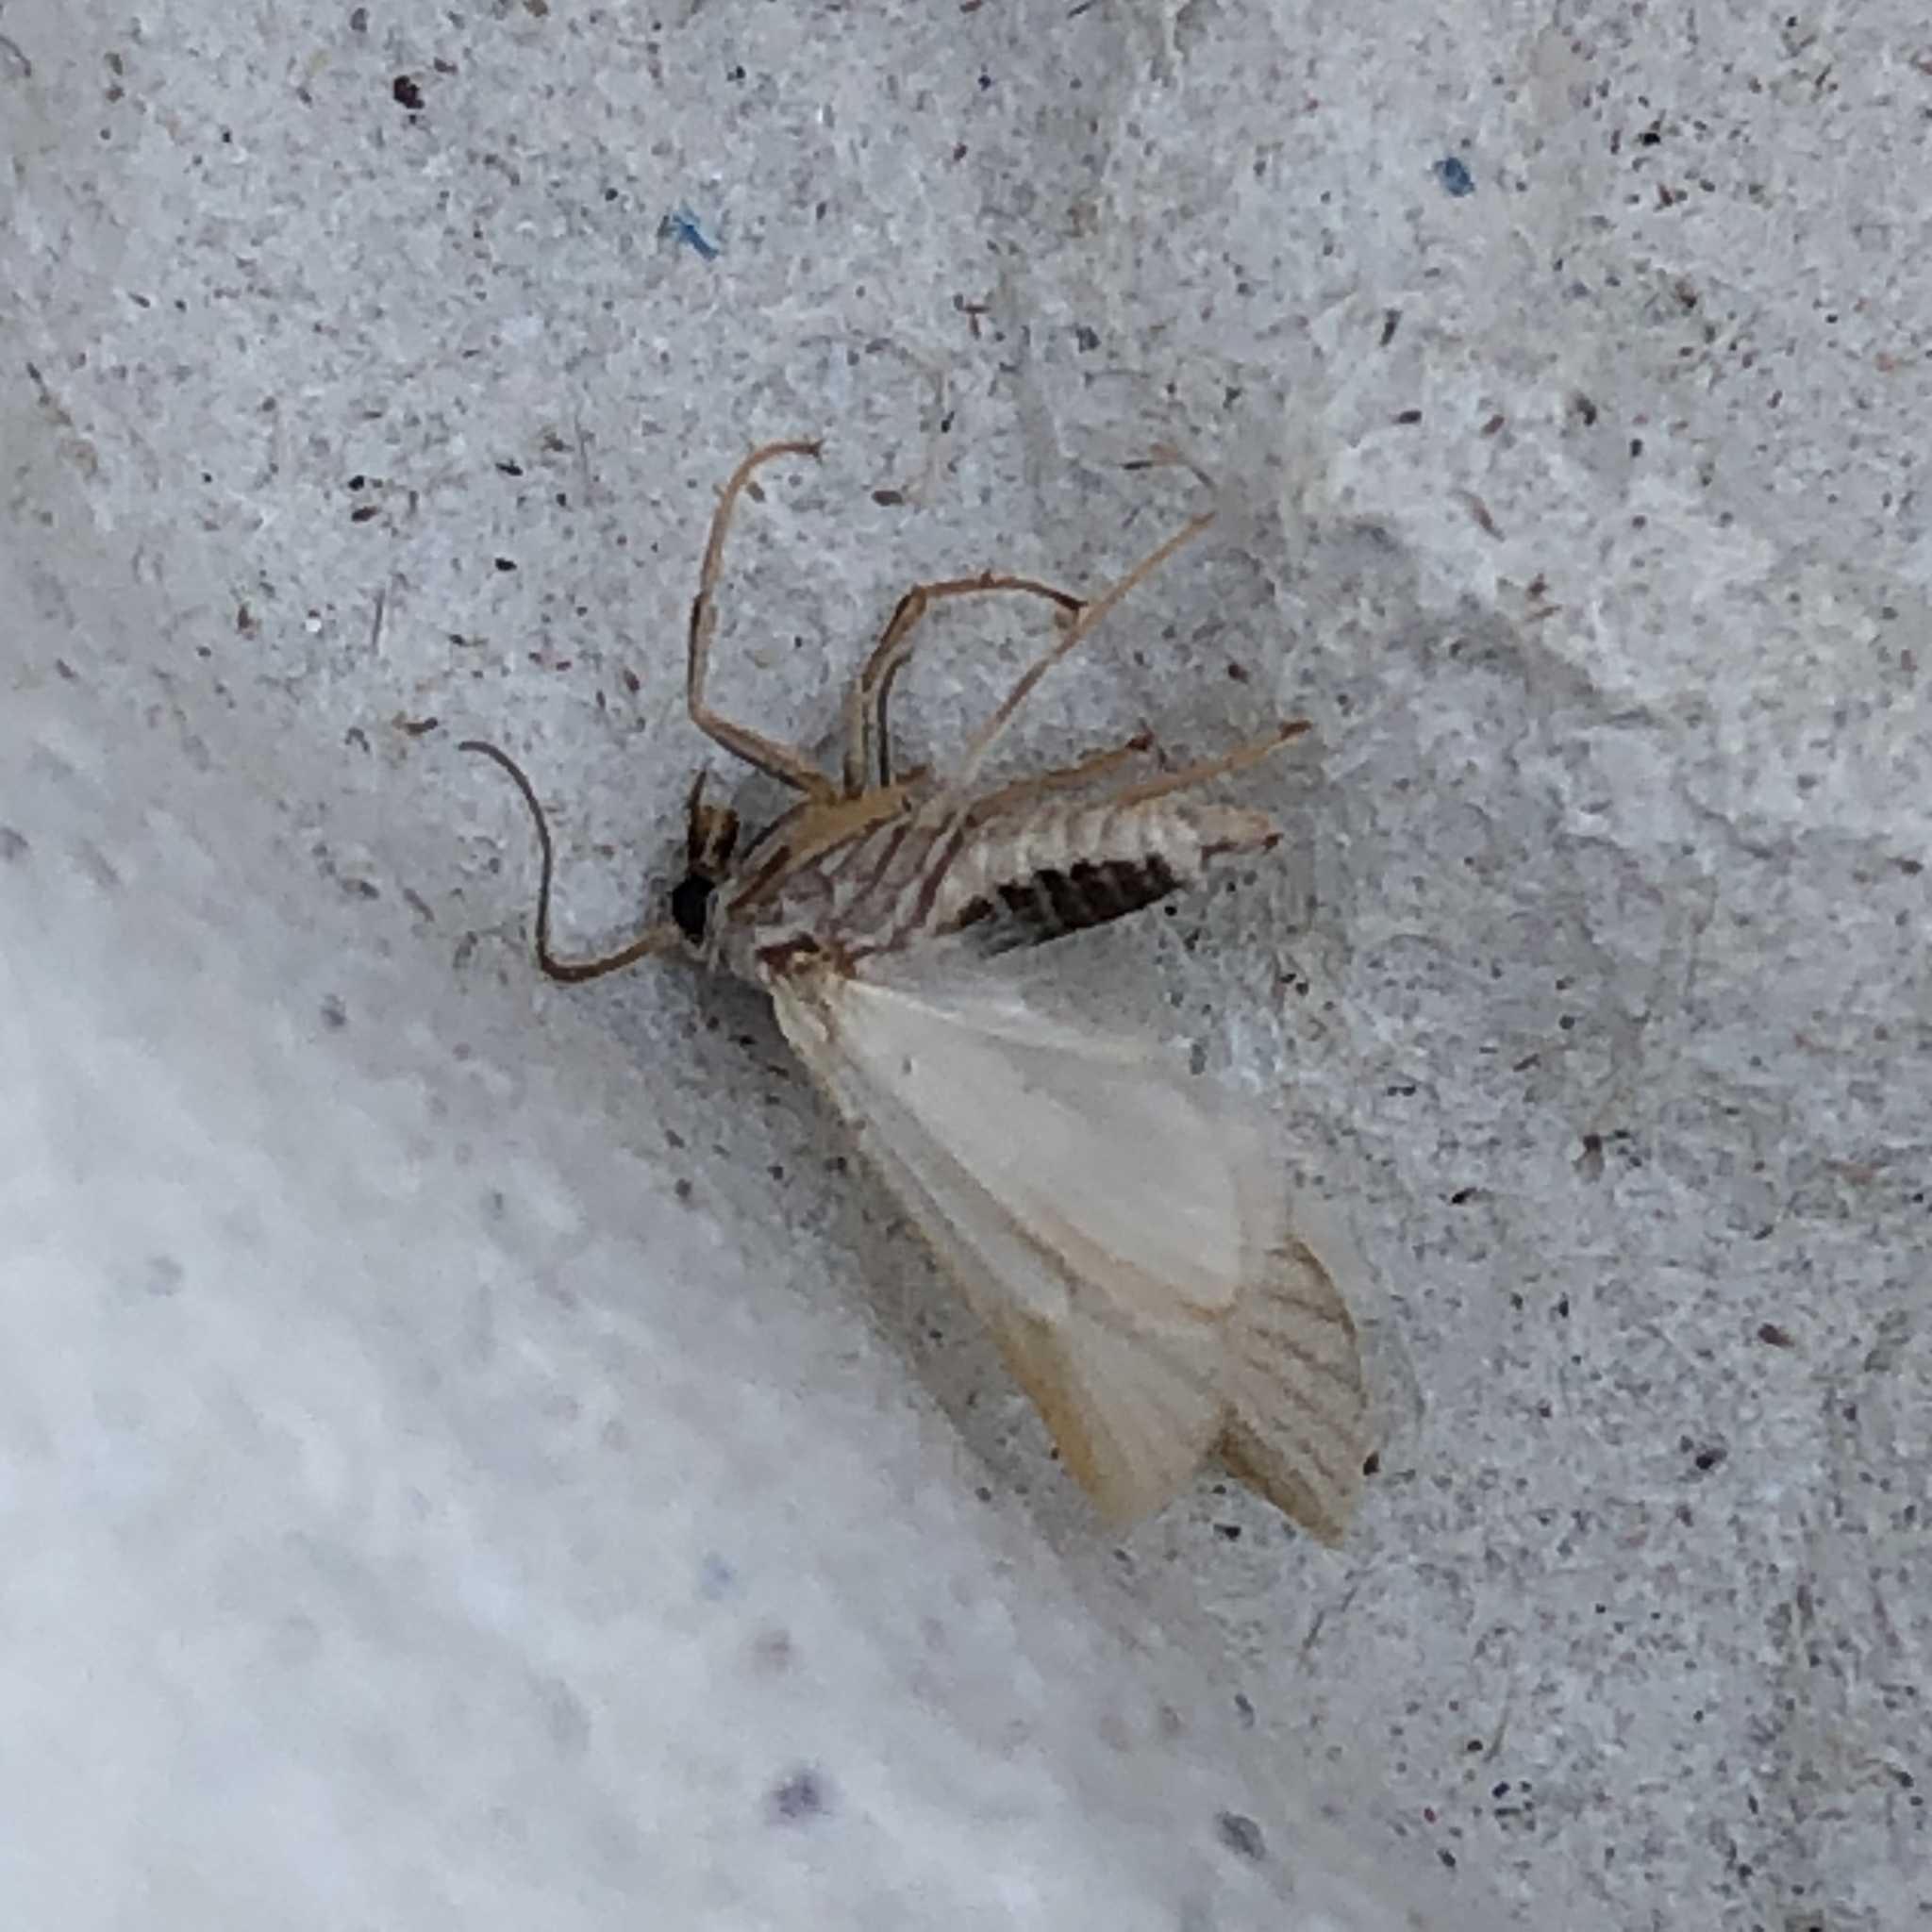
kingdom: Animalia
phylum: Arthropoda
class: Insecta
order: Lepidoptera
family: Crambidae
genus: Acentria
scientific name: Acentria ephemerella
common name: European water moth
